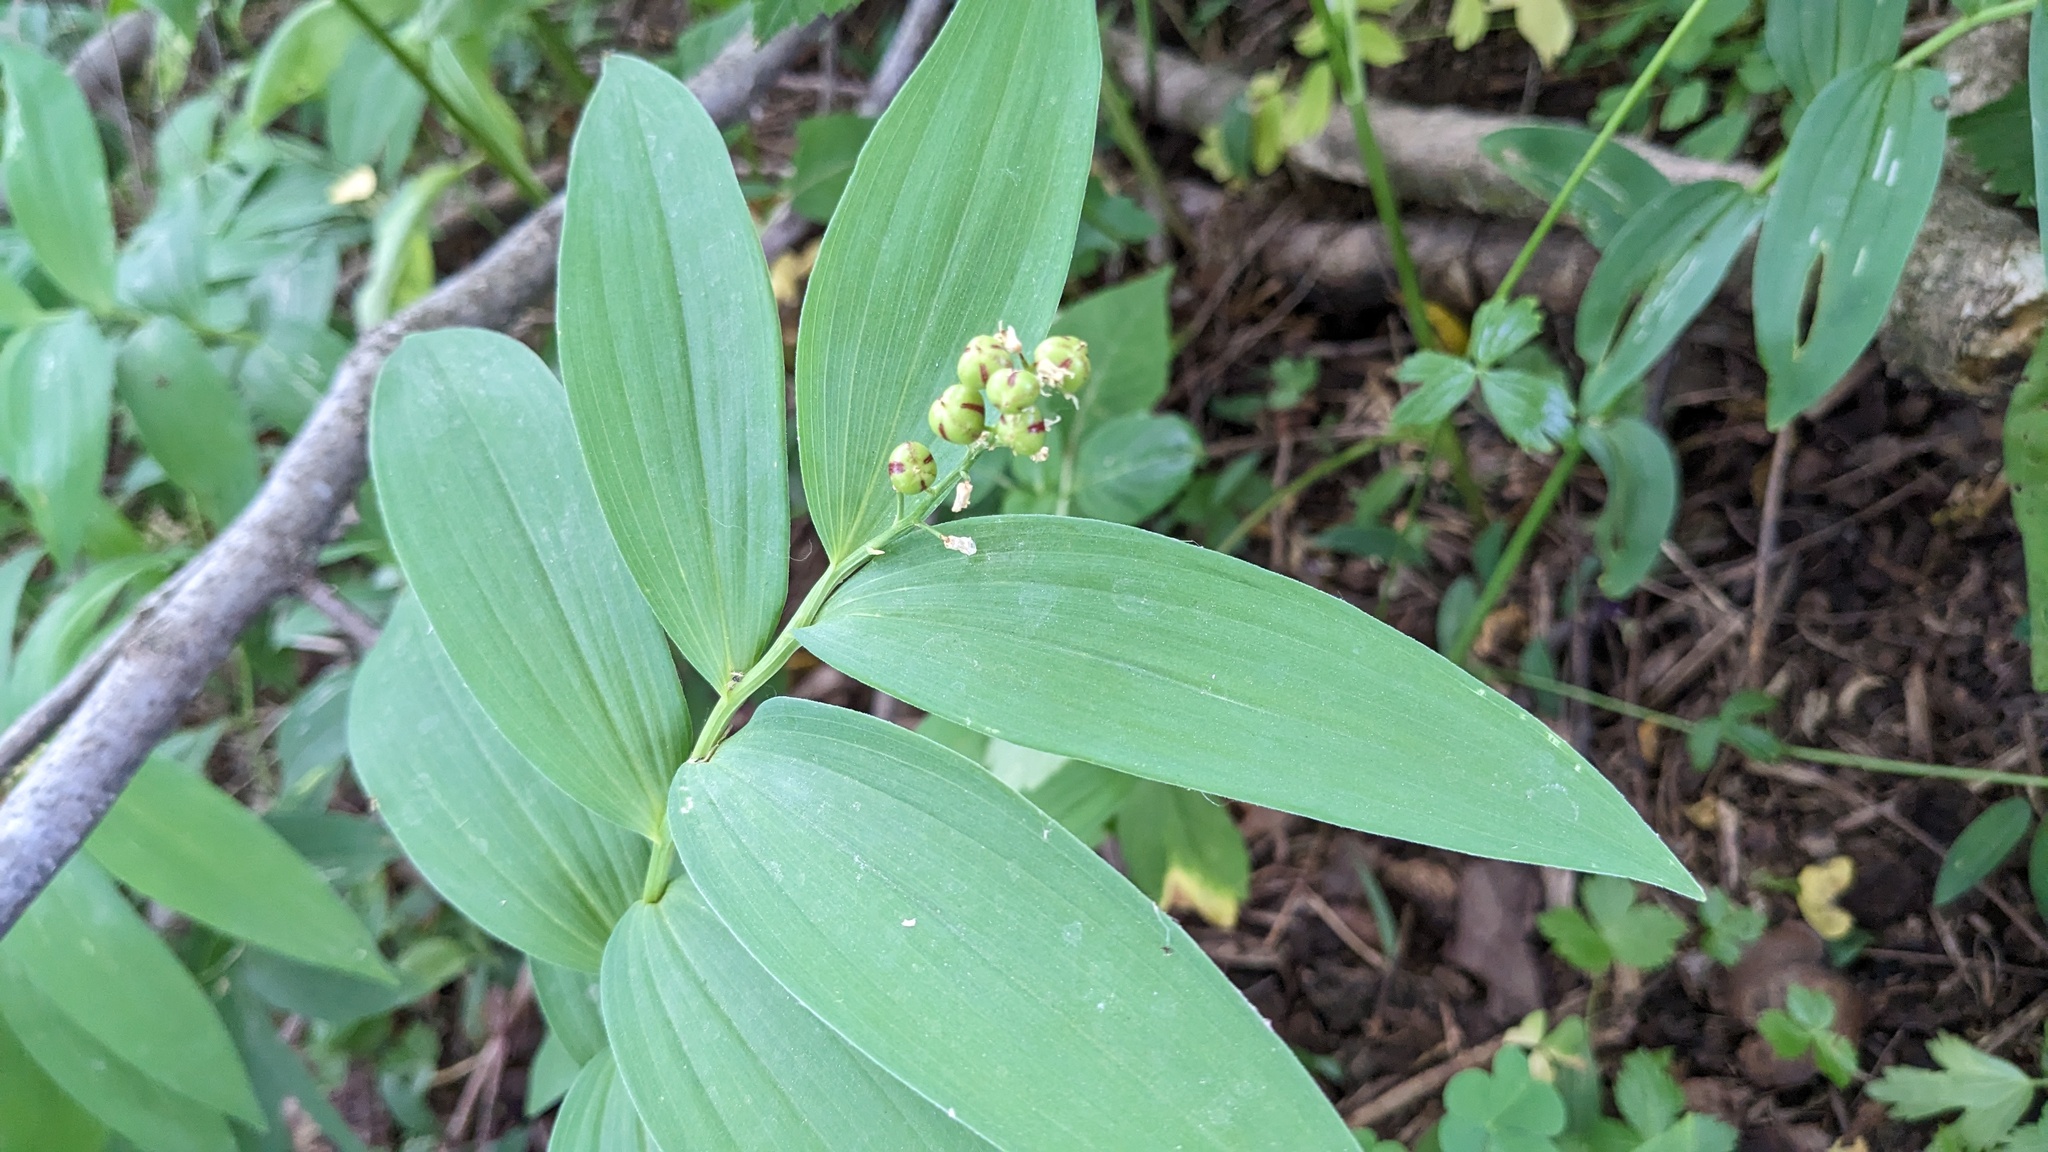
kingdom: Plantae
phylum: Tracheophyta
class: Liliopsida
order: Asparagales
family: Asparagaceae
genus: Maianthemum
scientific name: Maianthemum stellatum
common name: Little false solomon's seal
